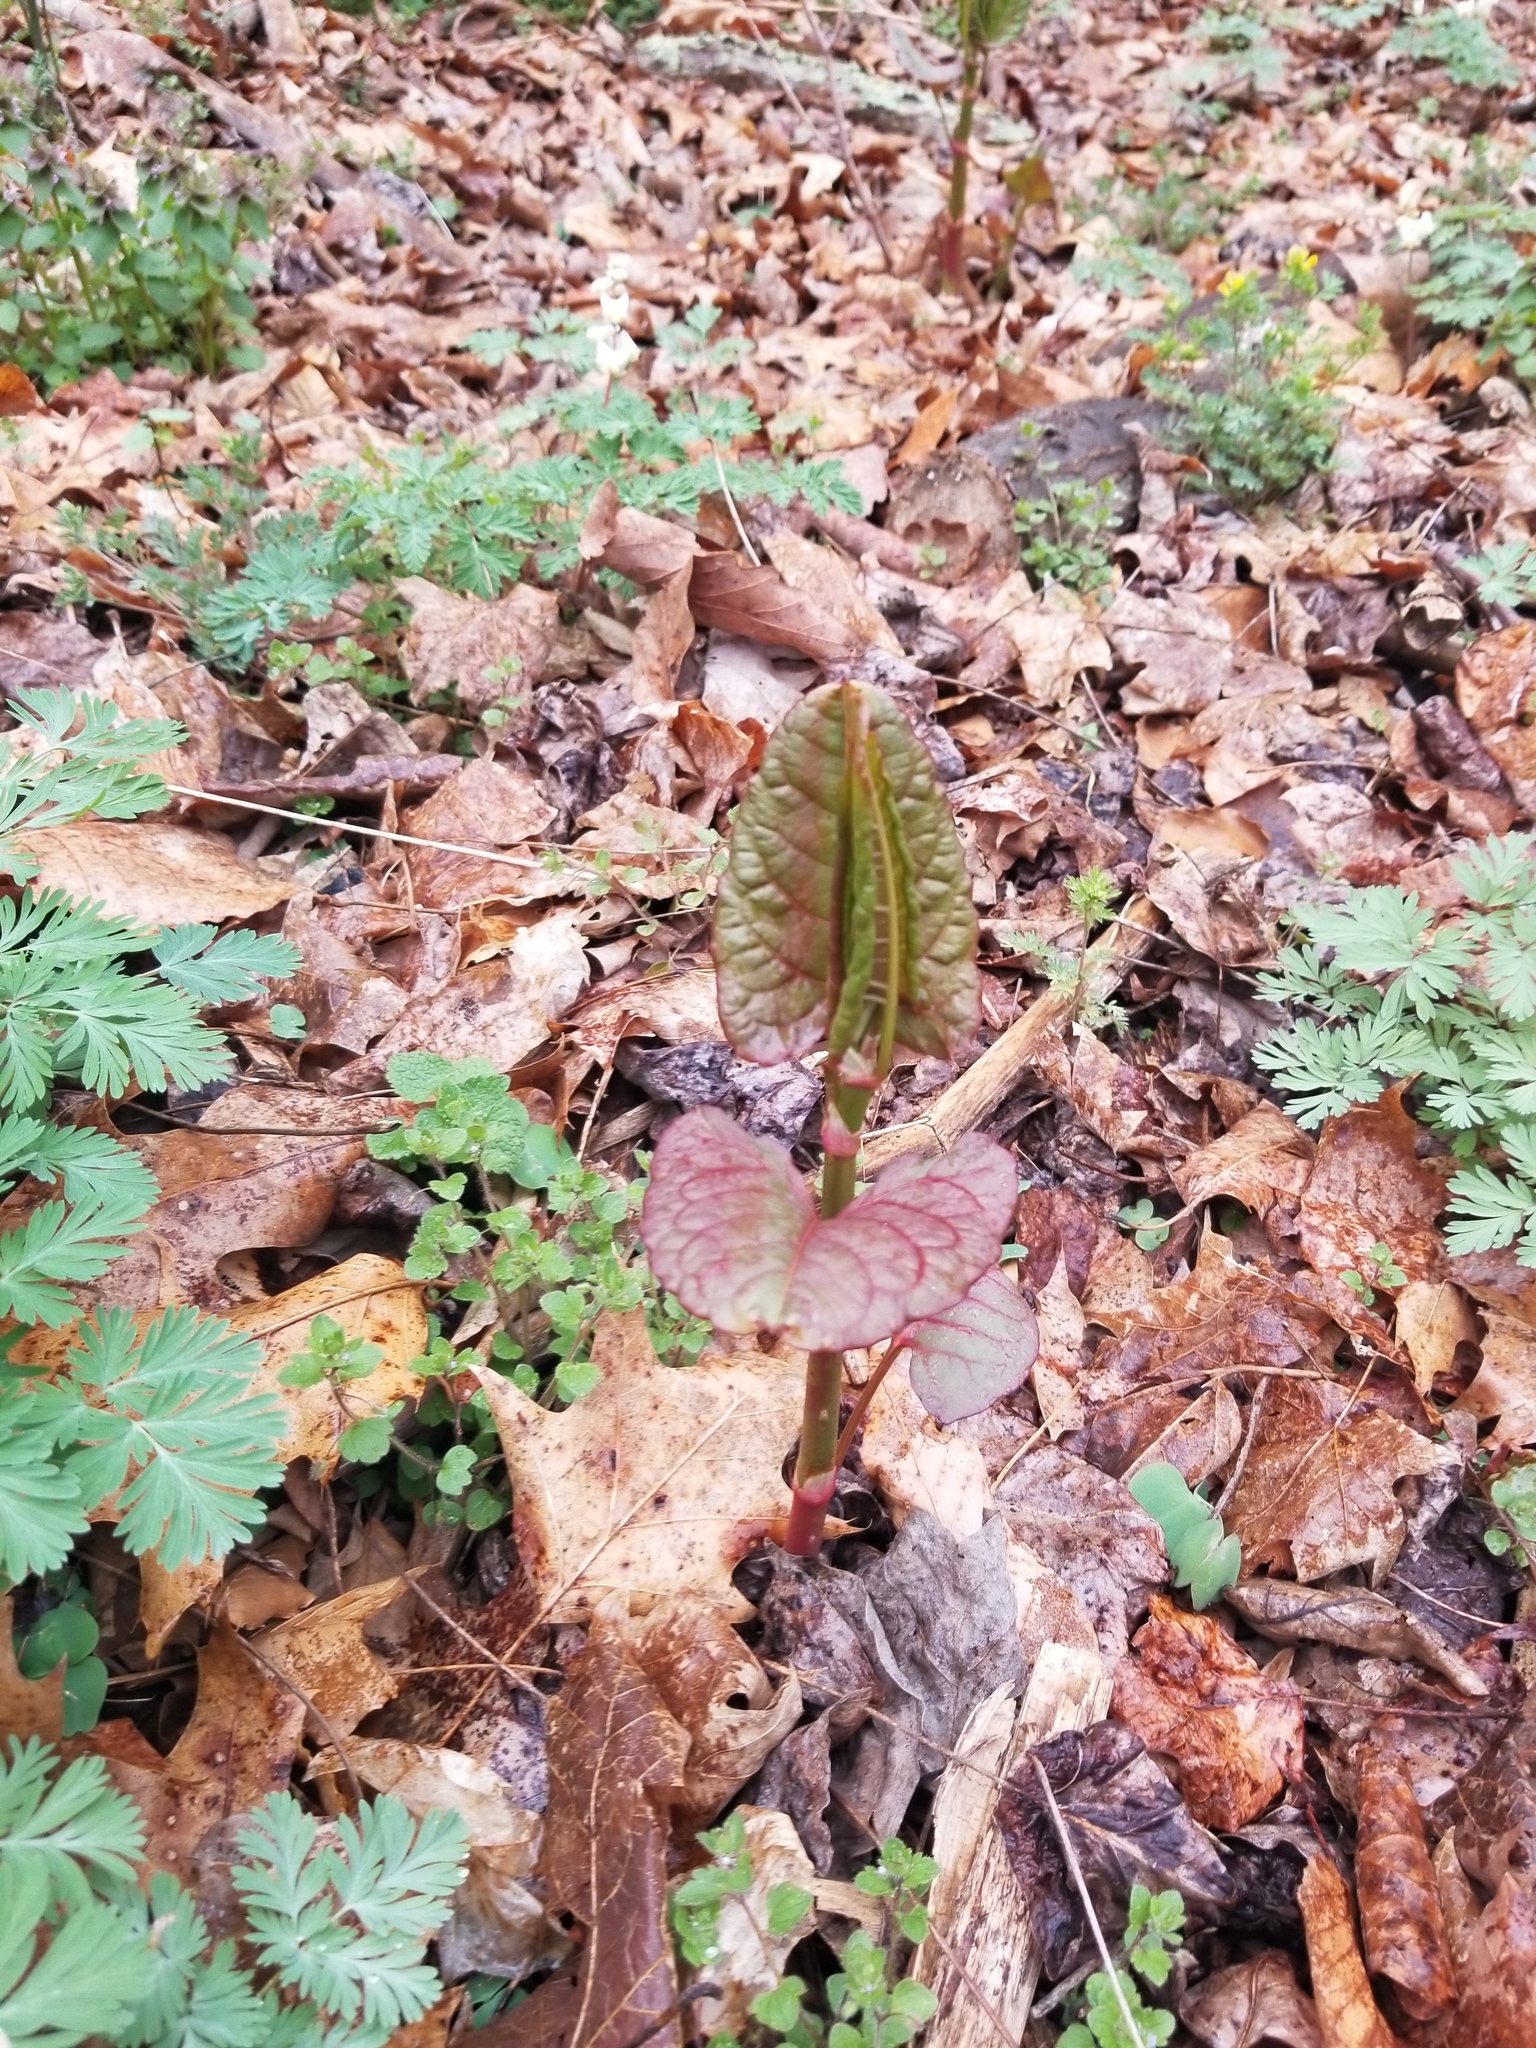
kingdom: Plantae
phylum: Tracheophyta
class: Magnoliopsida
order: Caryophyllales
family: Polygonaceae
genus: Reynoutria
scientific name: Reynoutria japonica
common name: Japanese knotweed
